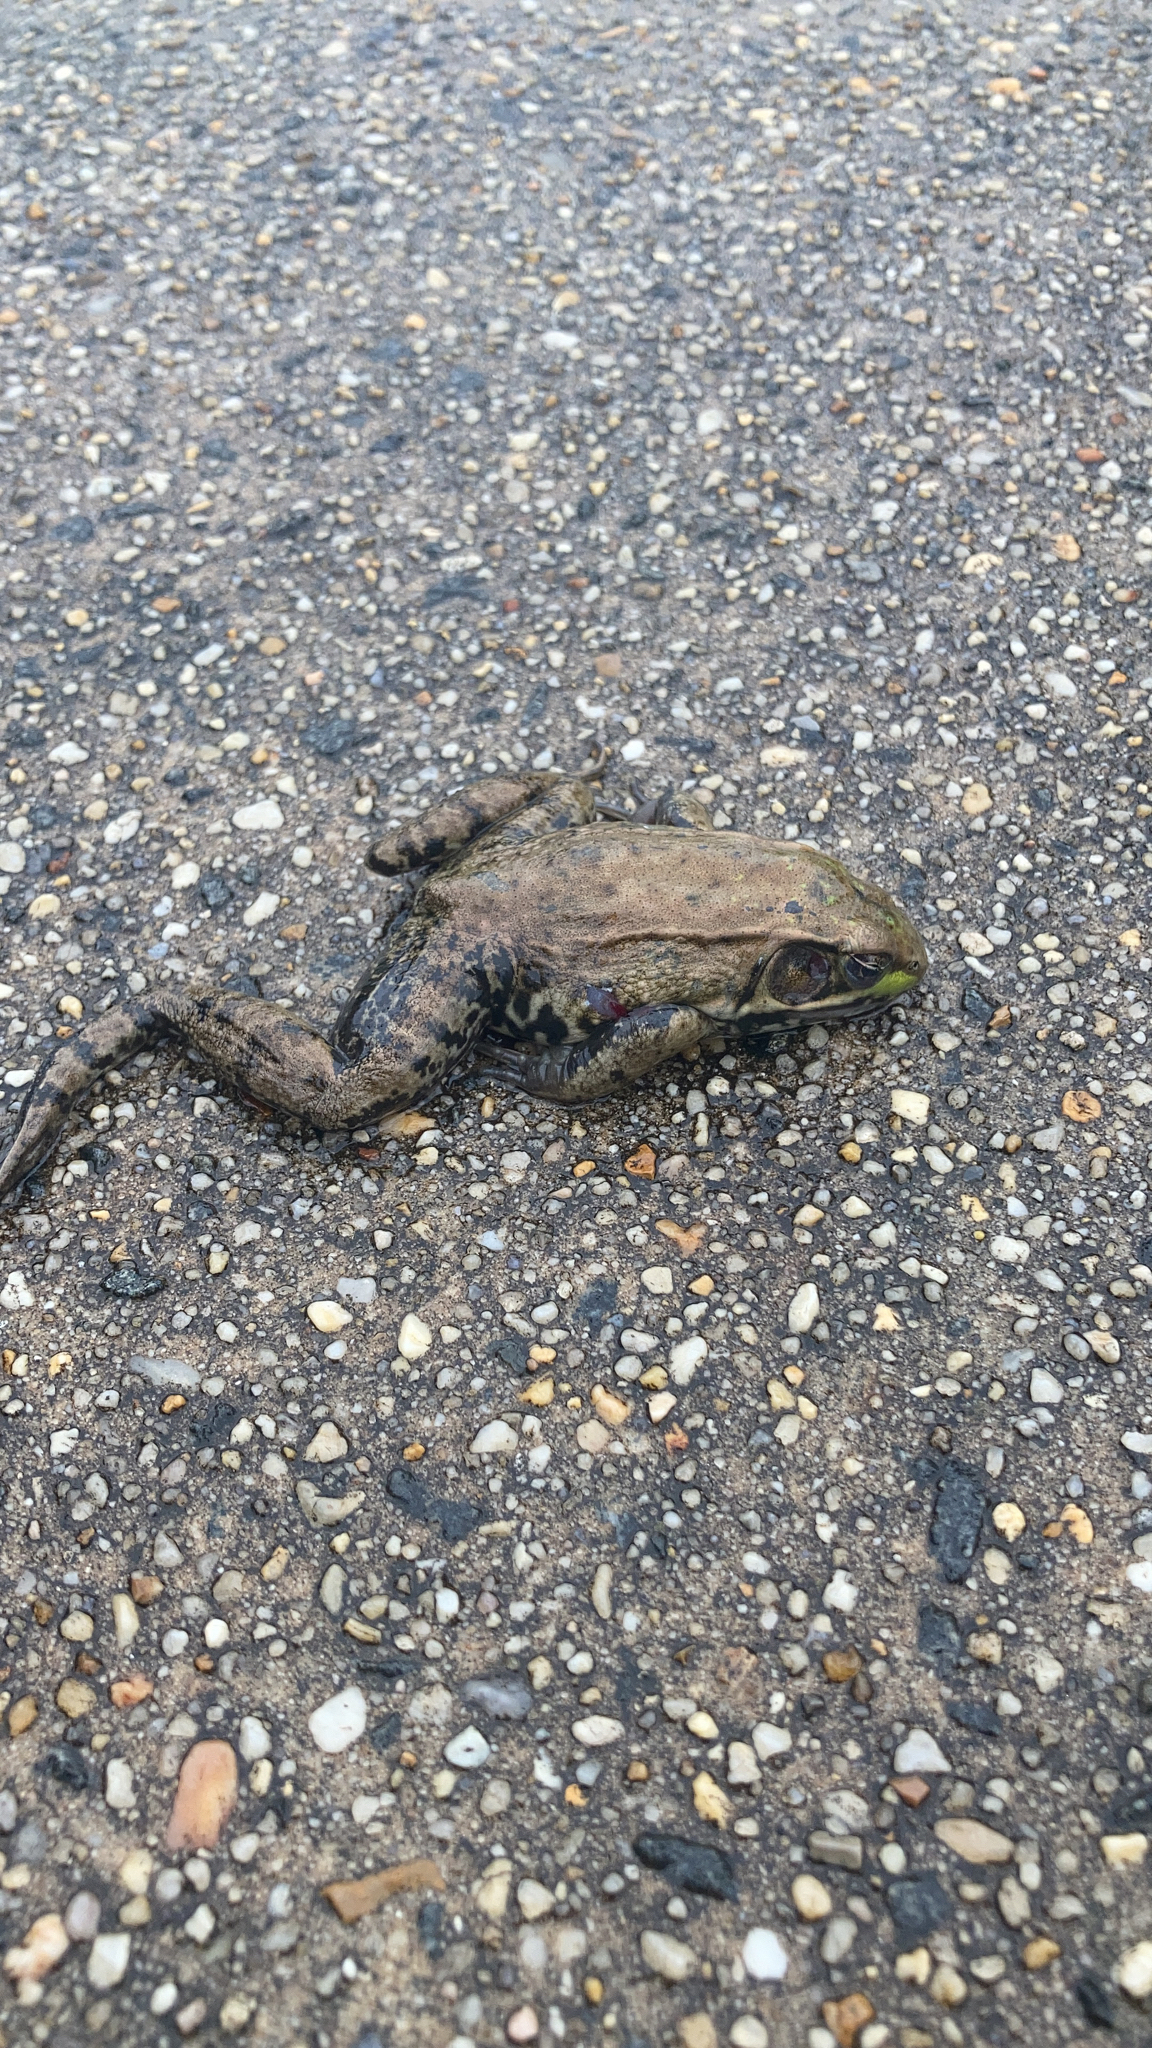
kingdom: Animalia
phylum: Chordata
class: Amphibia
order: Anura
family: Ranidae
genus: Lithobates
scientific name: Lithobates clamitans
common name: Green frog
